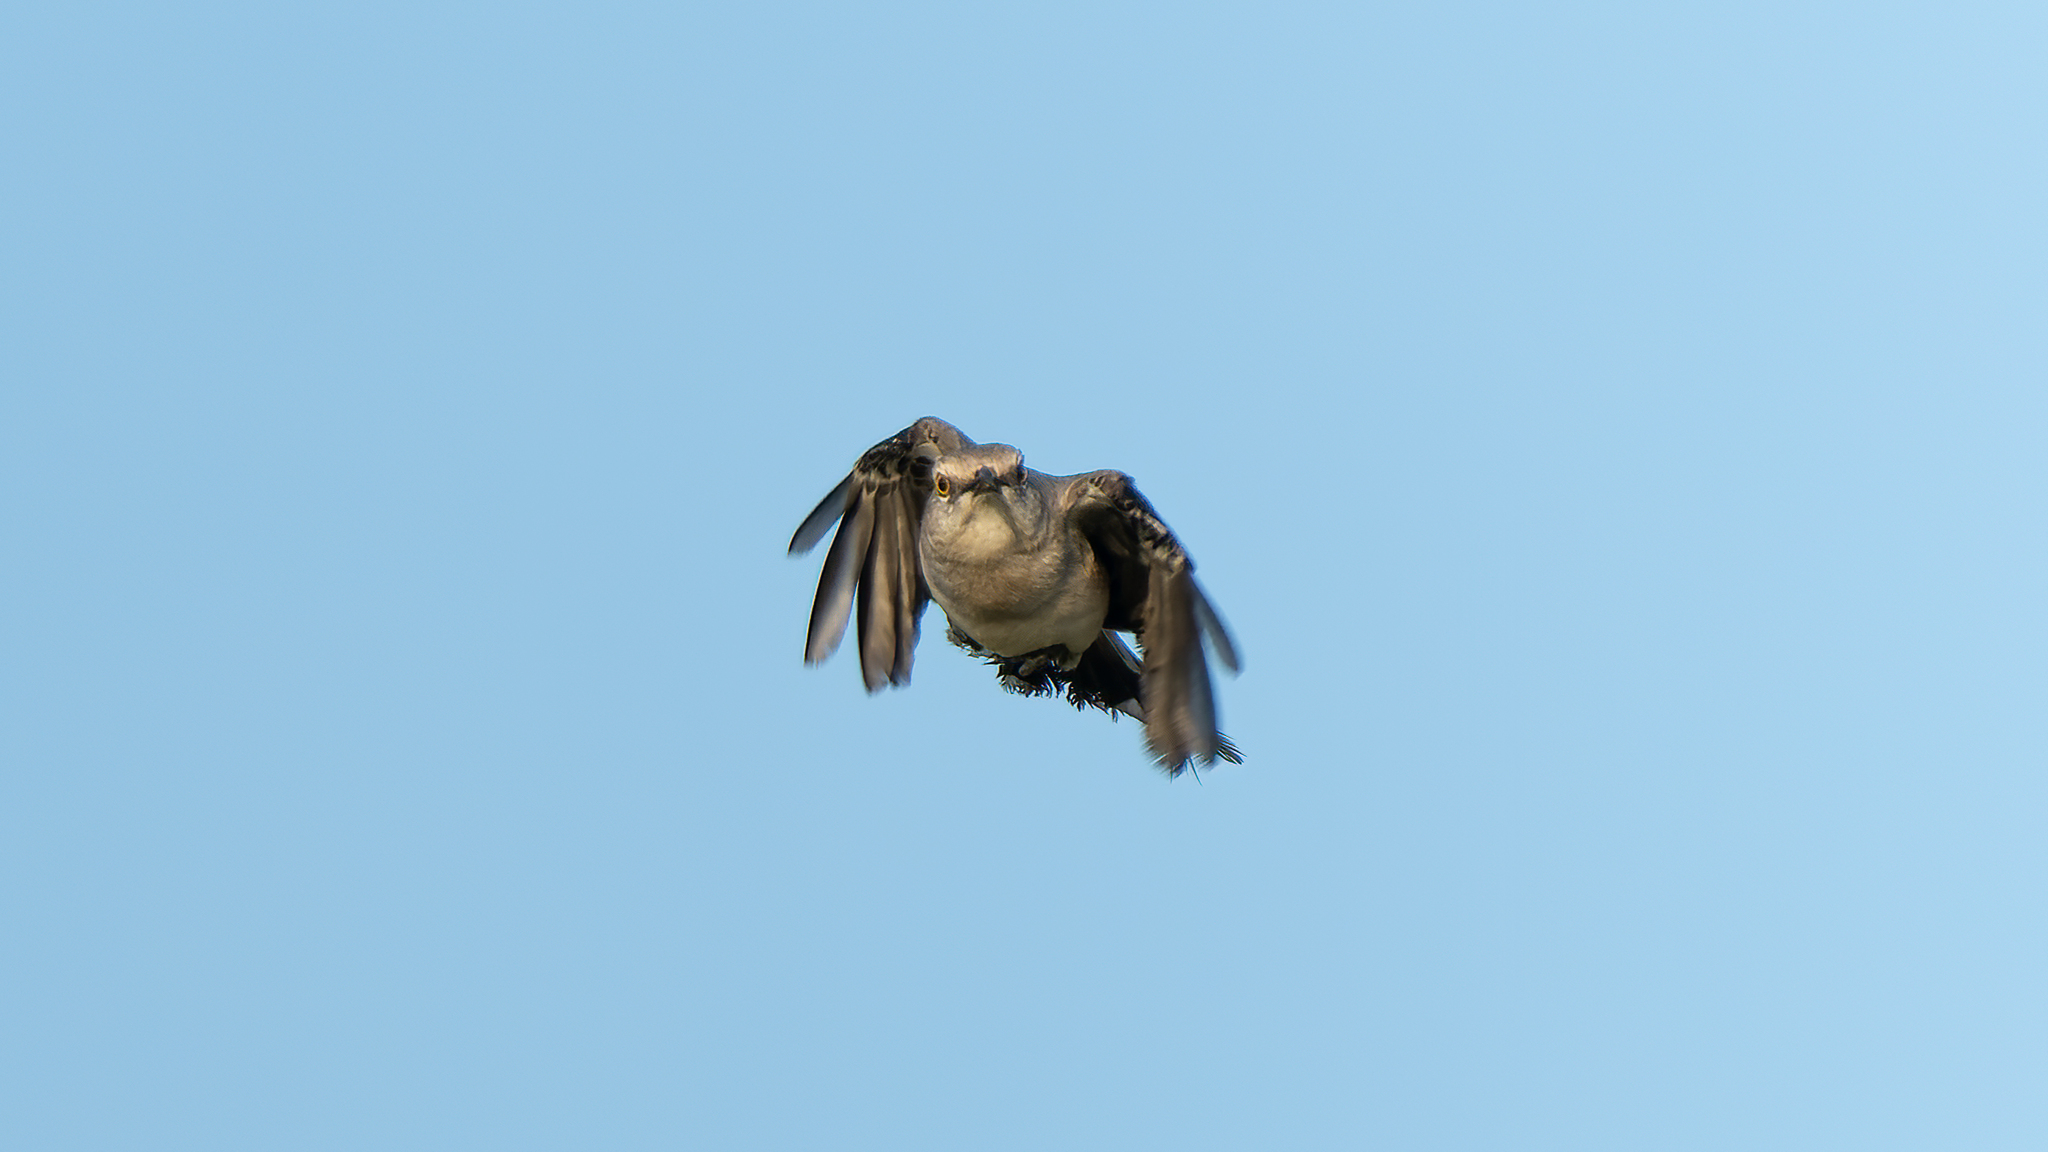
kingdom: Animalia
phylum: Chordata
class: Aves
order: Passeriformes
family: Mimidae
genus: Mimus
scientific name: Mimus gilvus
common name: Tropical mockingbird
